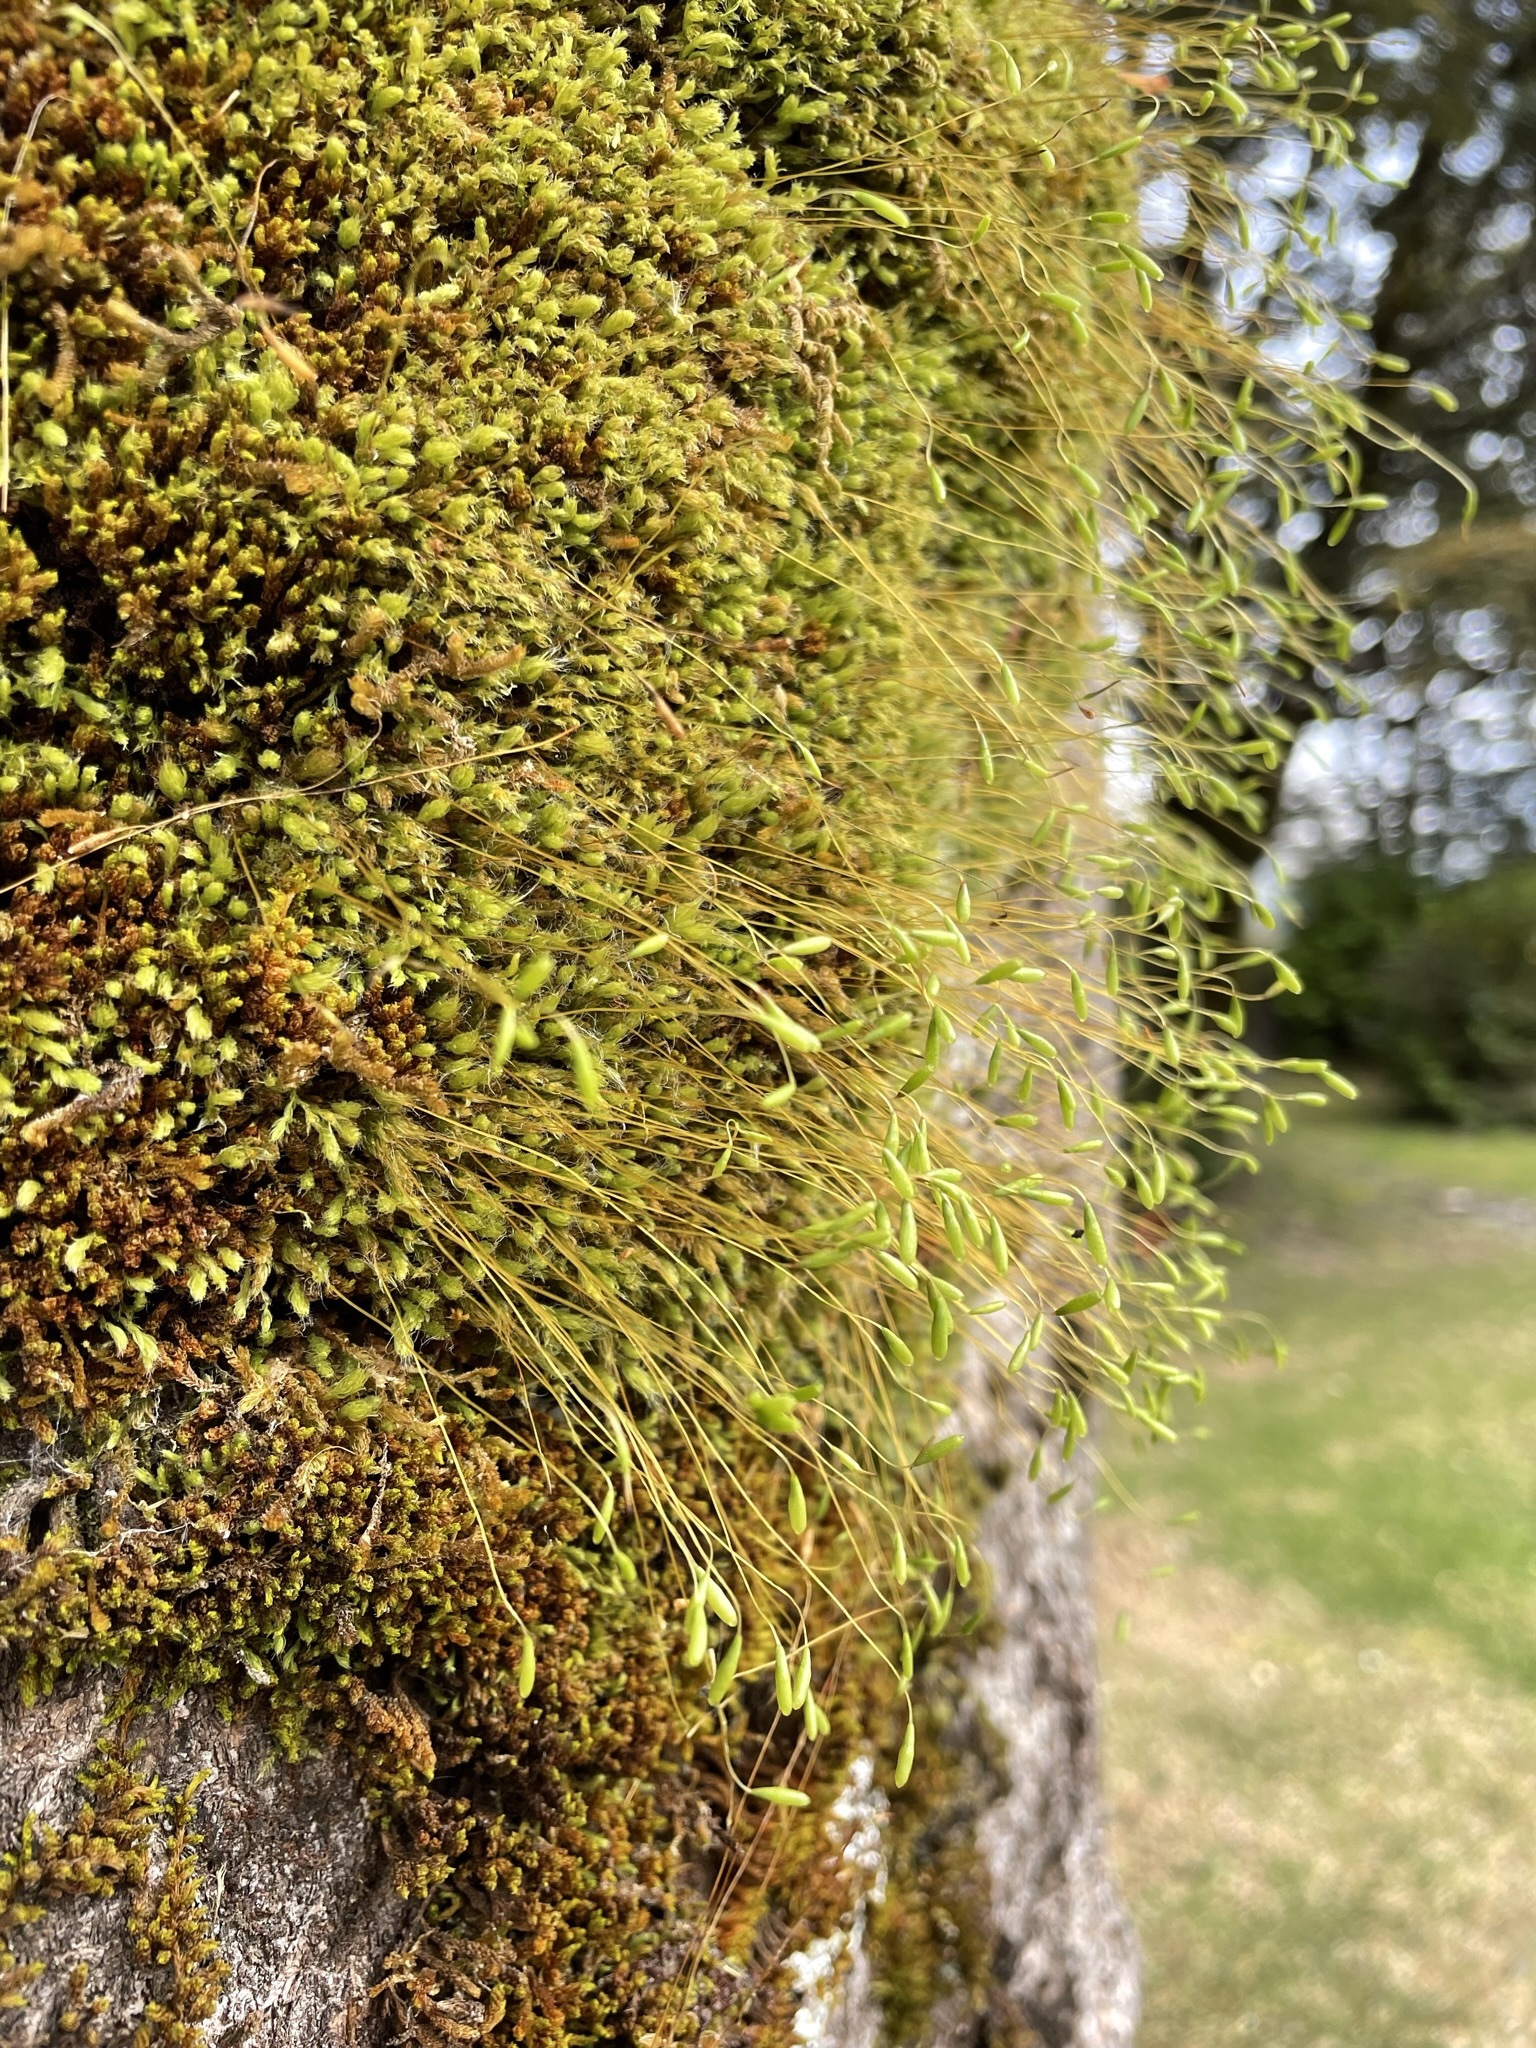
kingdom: Plantae
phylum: Bryophyta
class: Bryopsida
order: Bryales
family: Leptostomataceae
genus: Leptostomum
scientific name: Leptostomum inclinans
